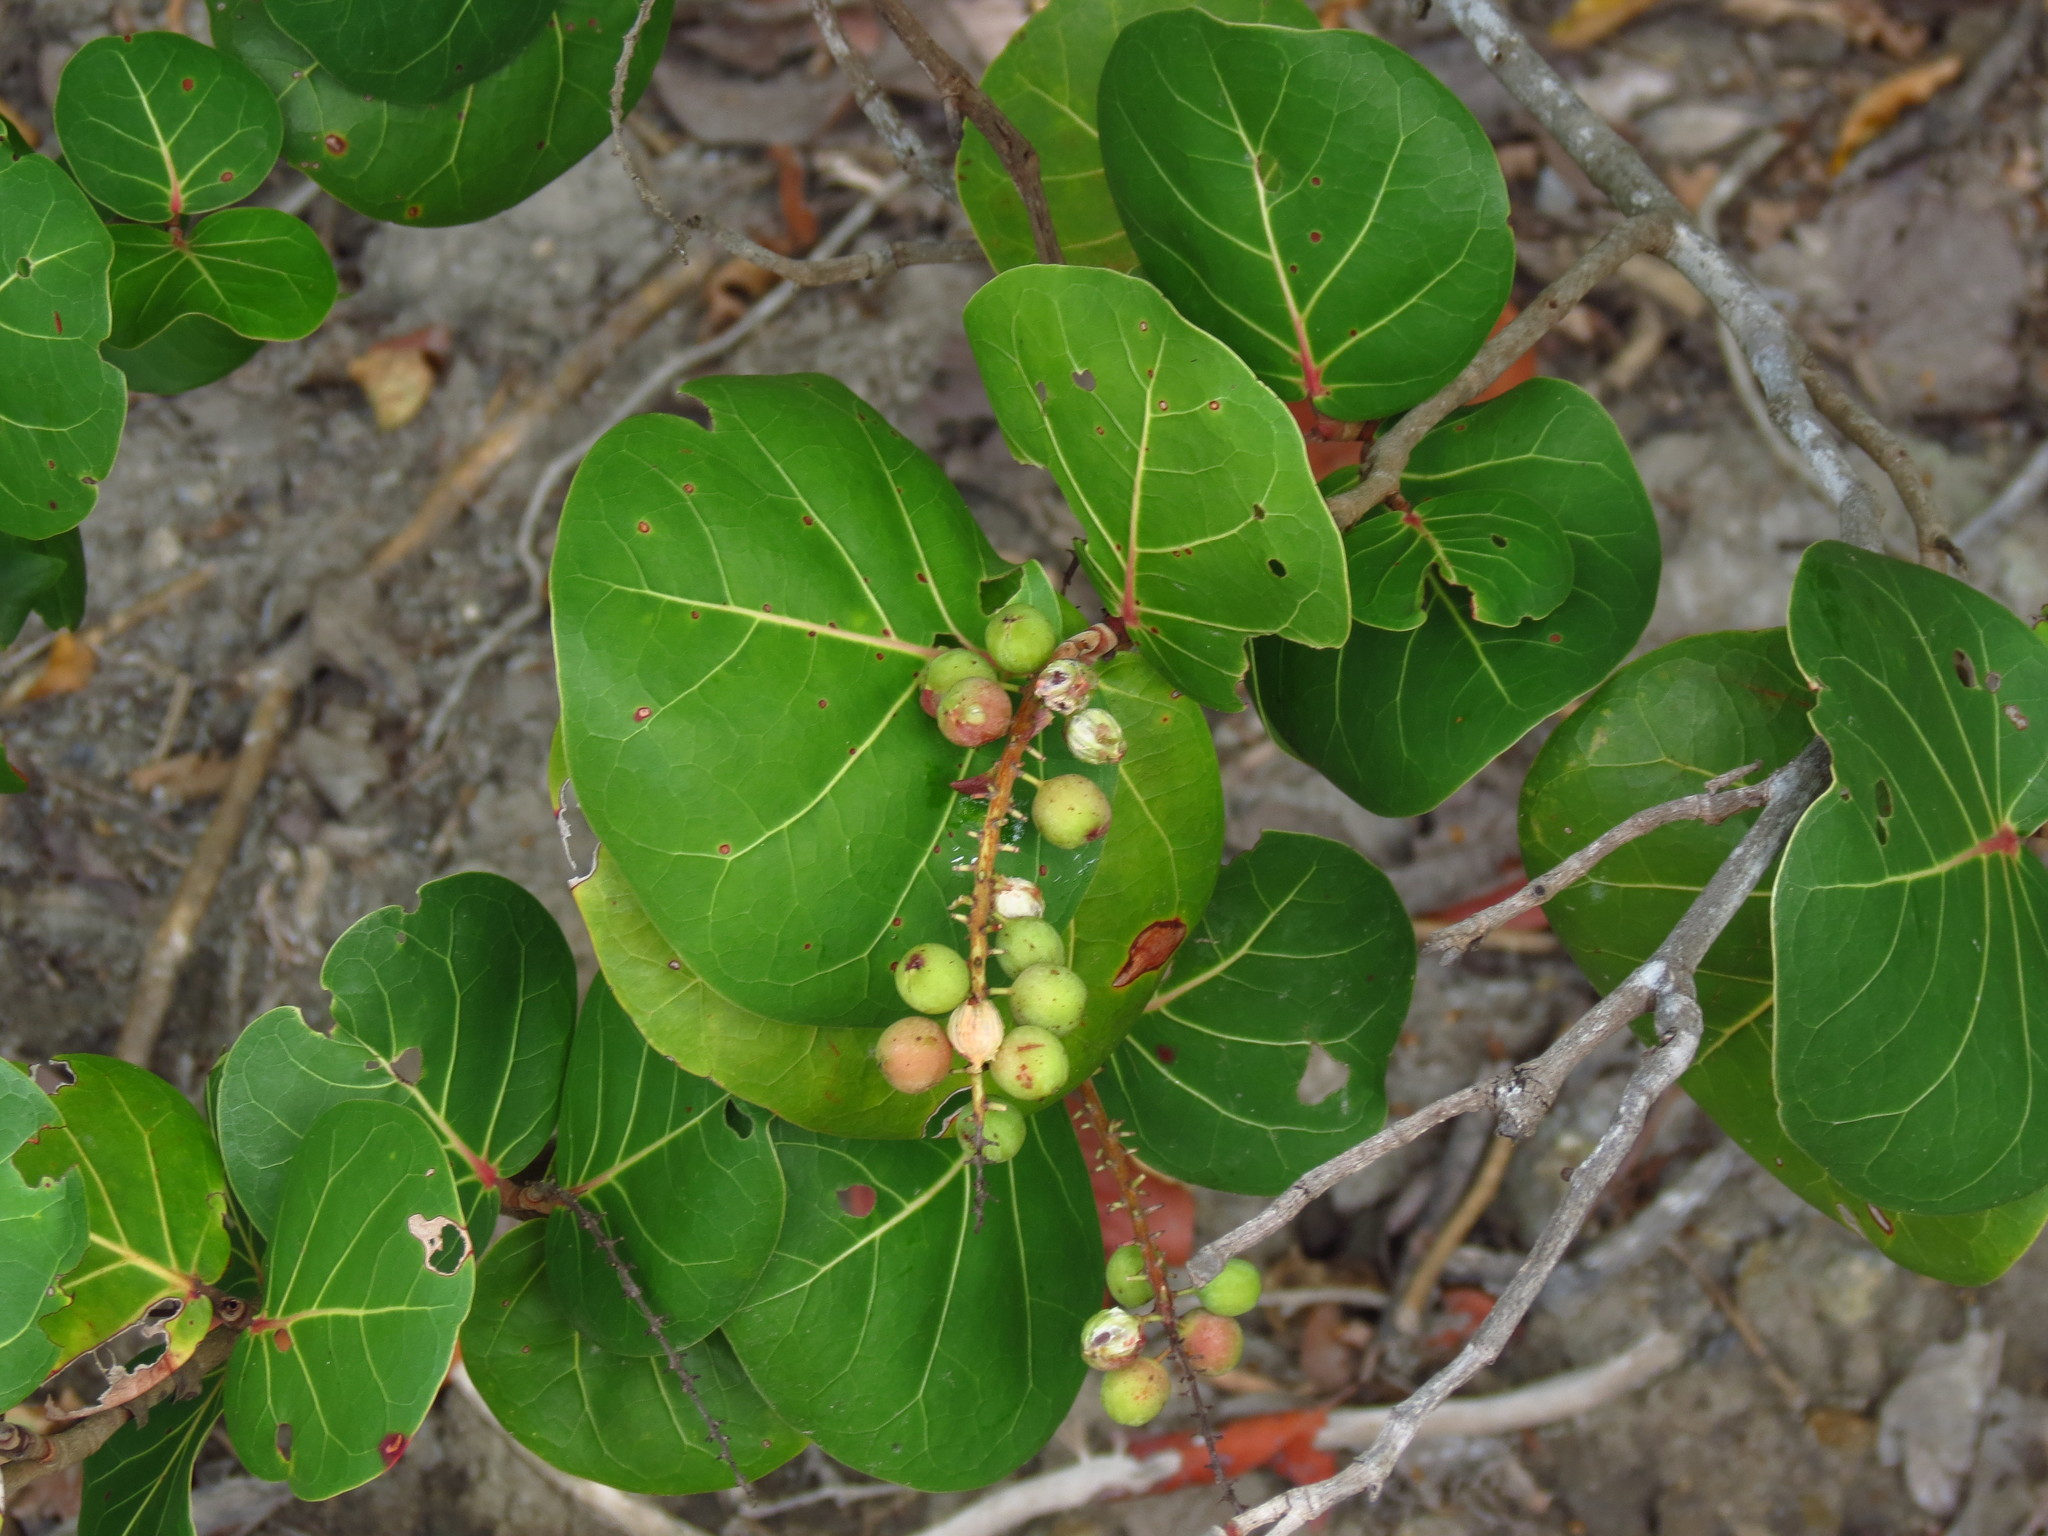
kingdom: Plantae
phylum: Tracheophyta
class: Magnoliopsida
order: Caryophyllales
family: Polygonaceae
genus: Coccoloba
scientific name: Coccoloba uvifera
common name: Seagrape
